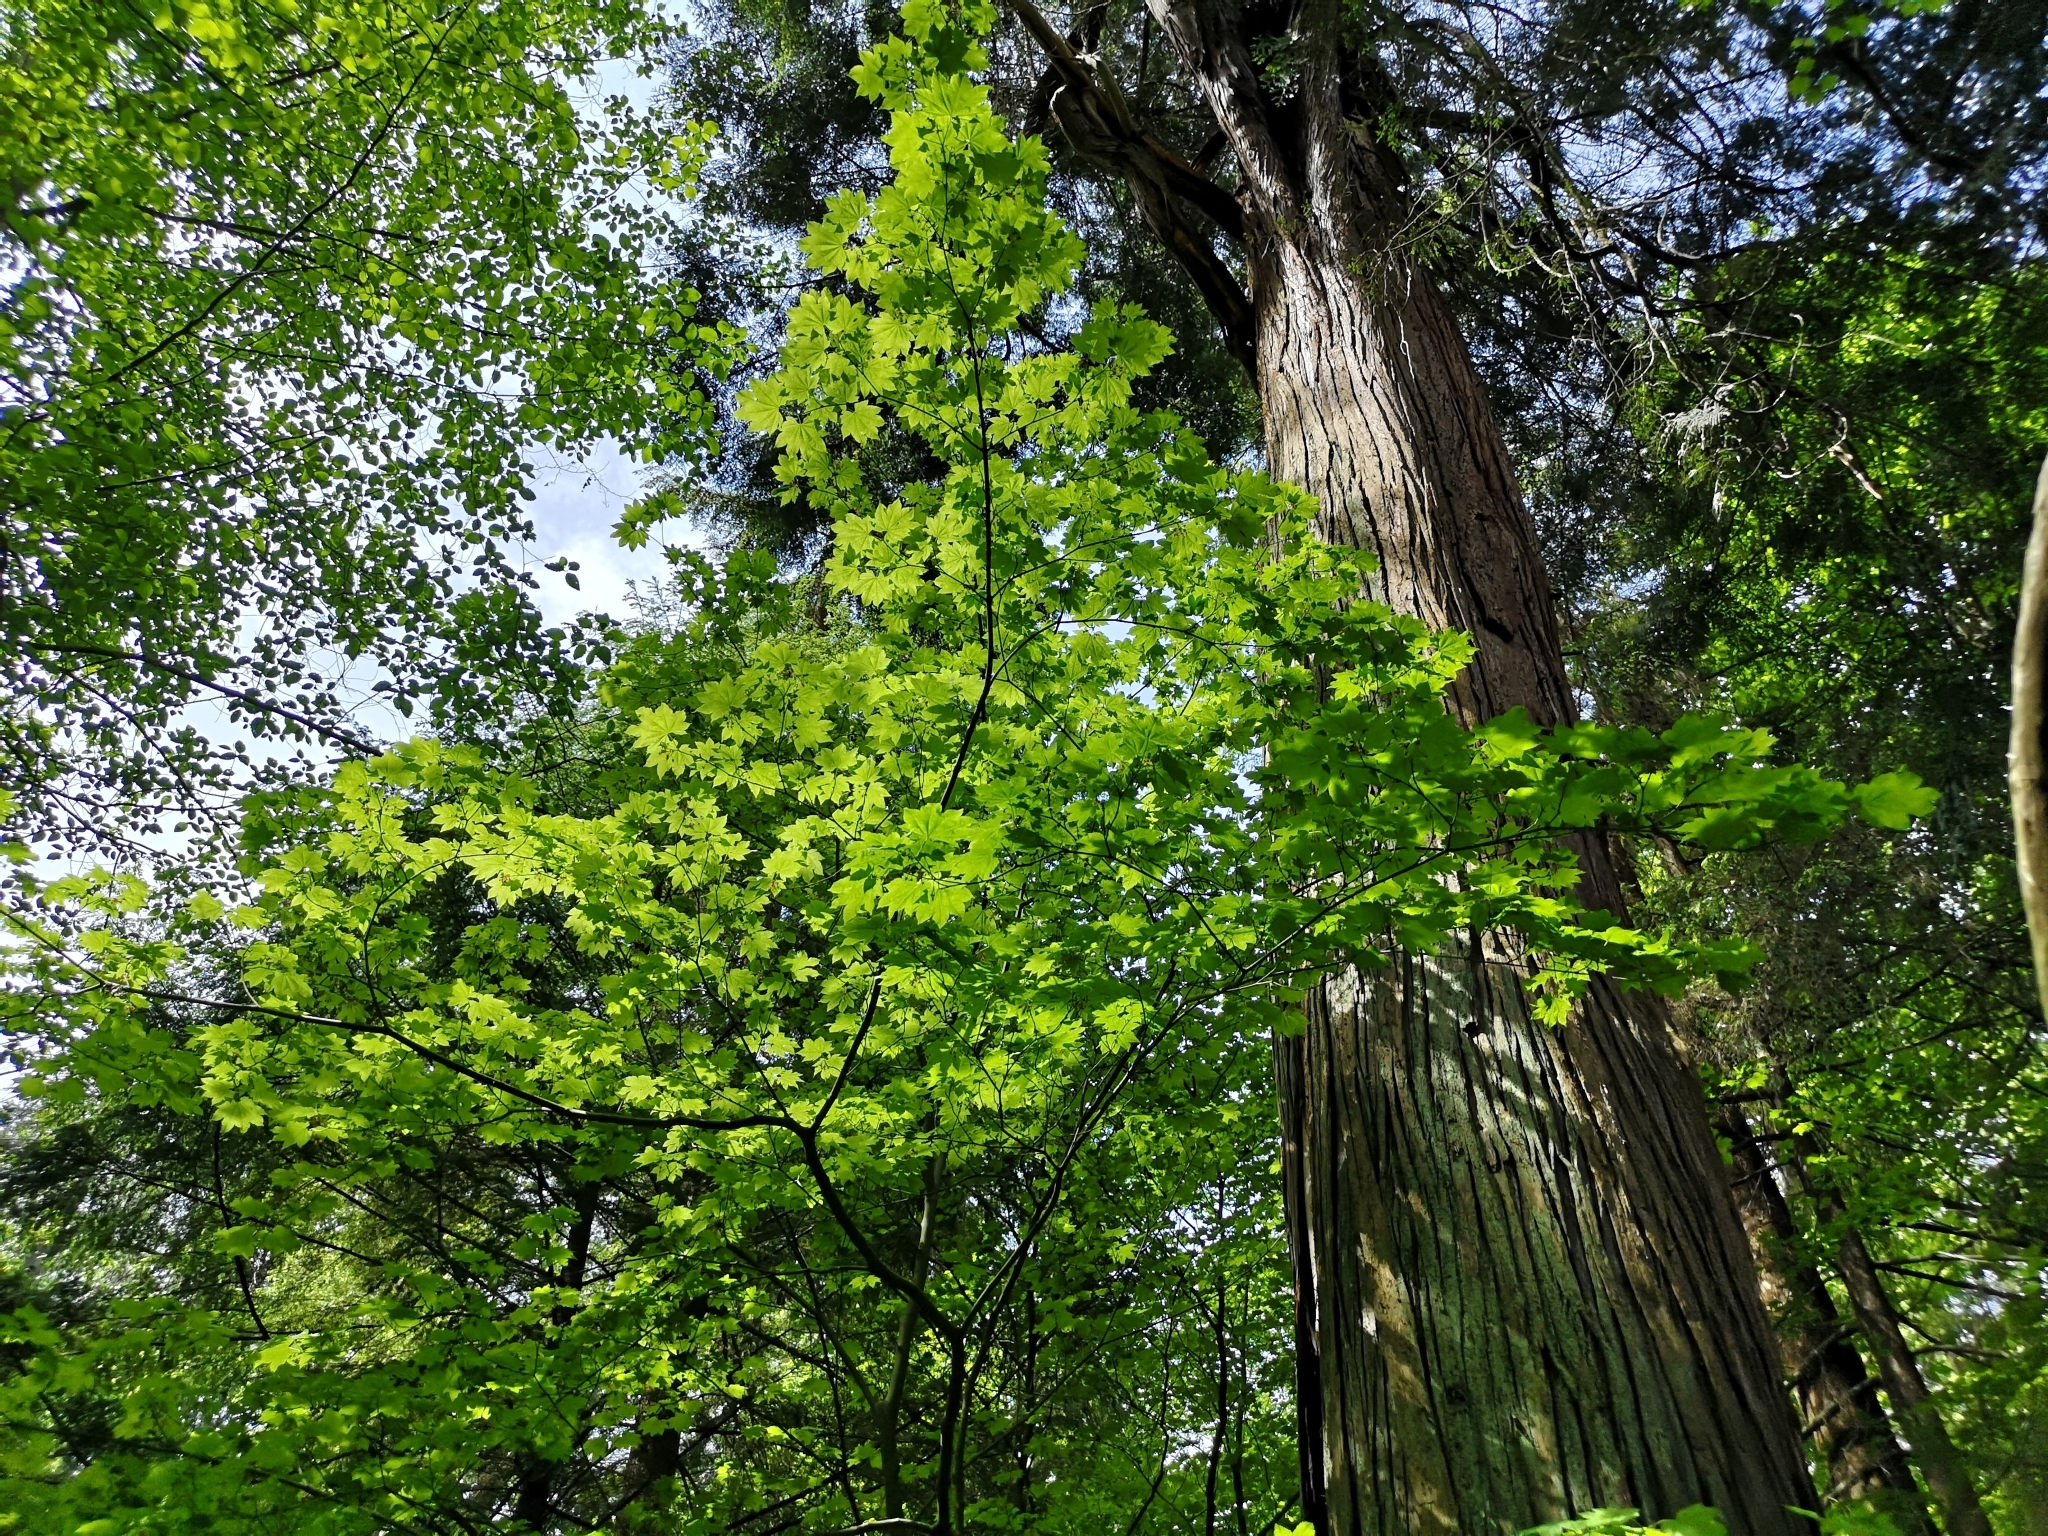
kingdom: Plantae
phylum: Tracheophyta
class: Magnoliopsida
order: Sapindales
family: Sapindaceae
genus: Acer
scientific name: Acer circinatum
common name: Vine maple
